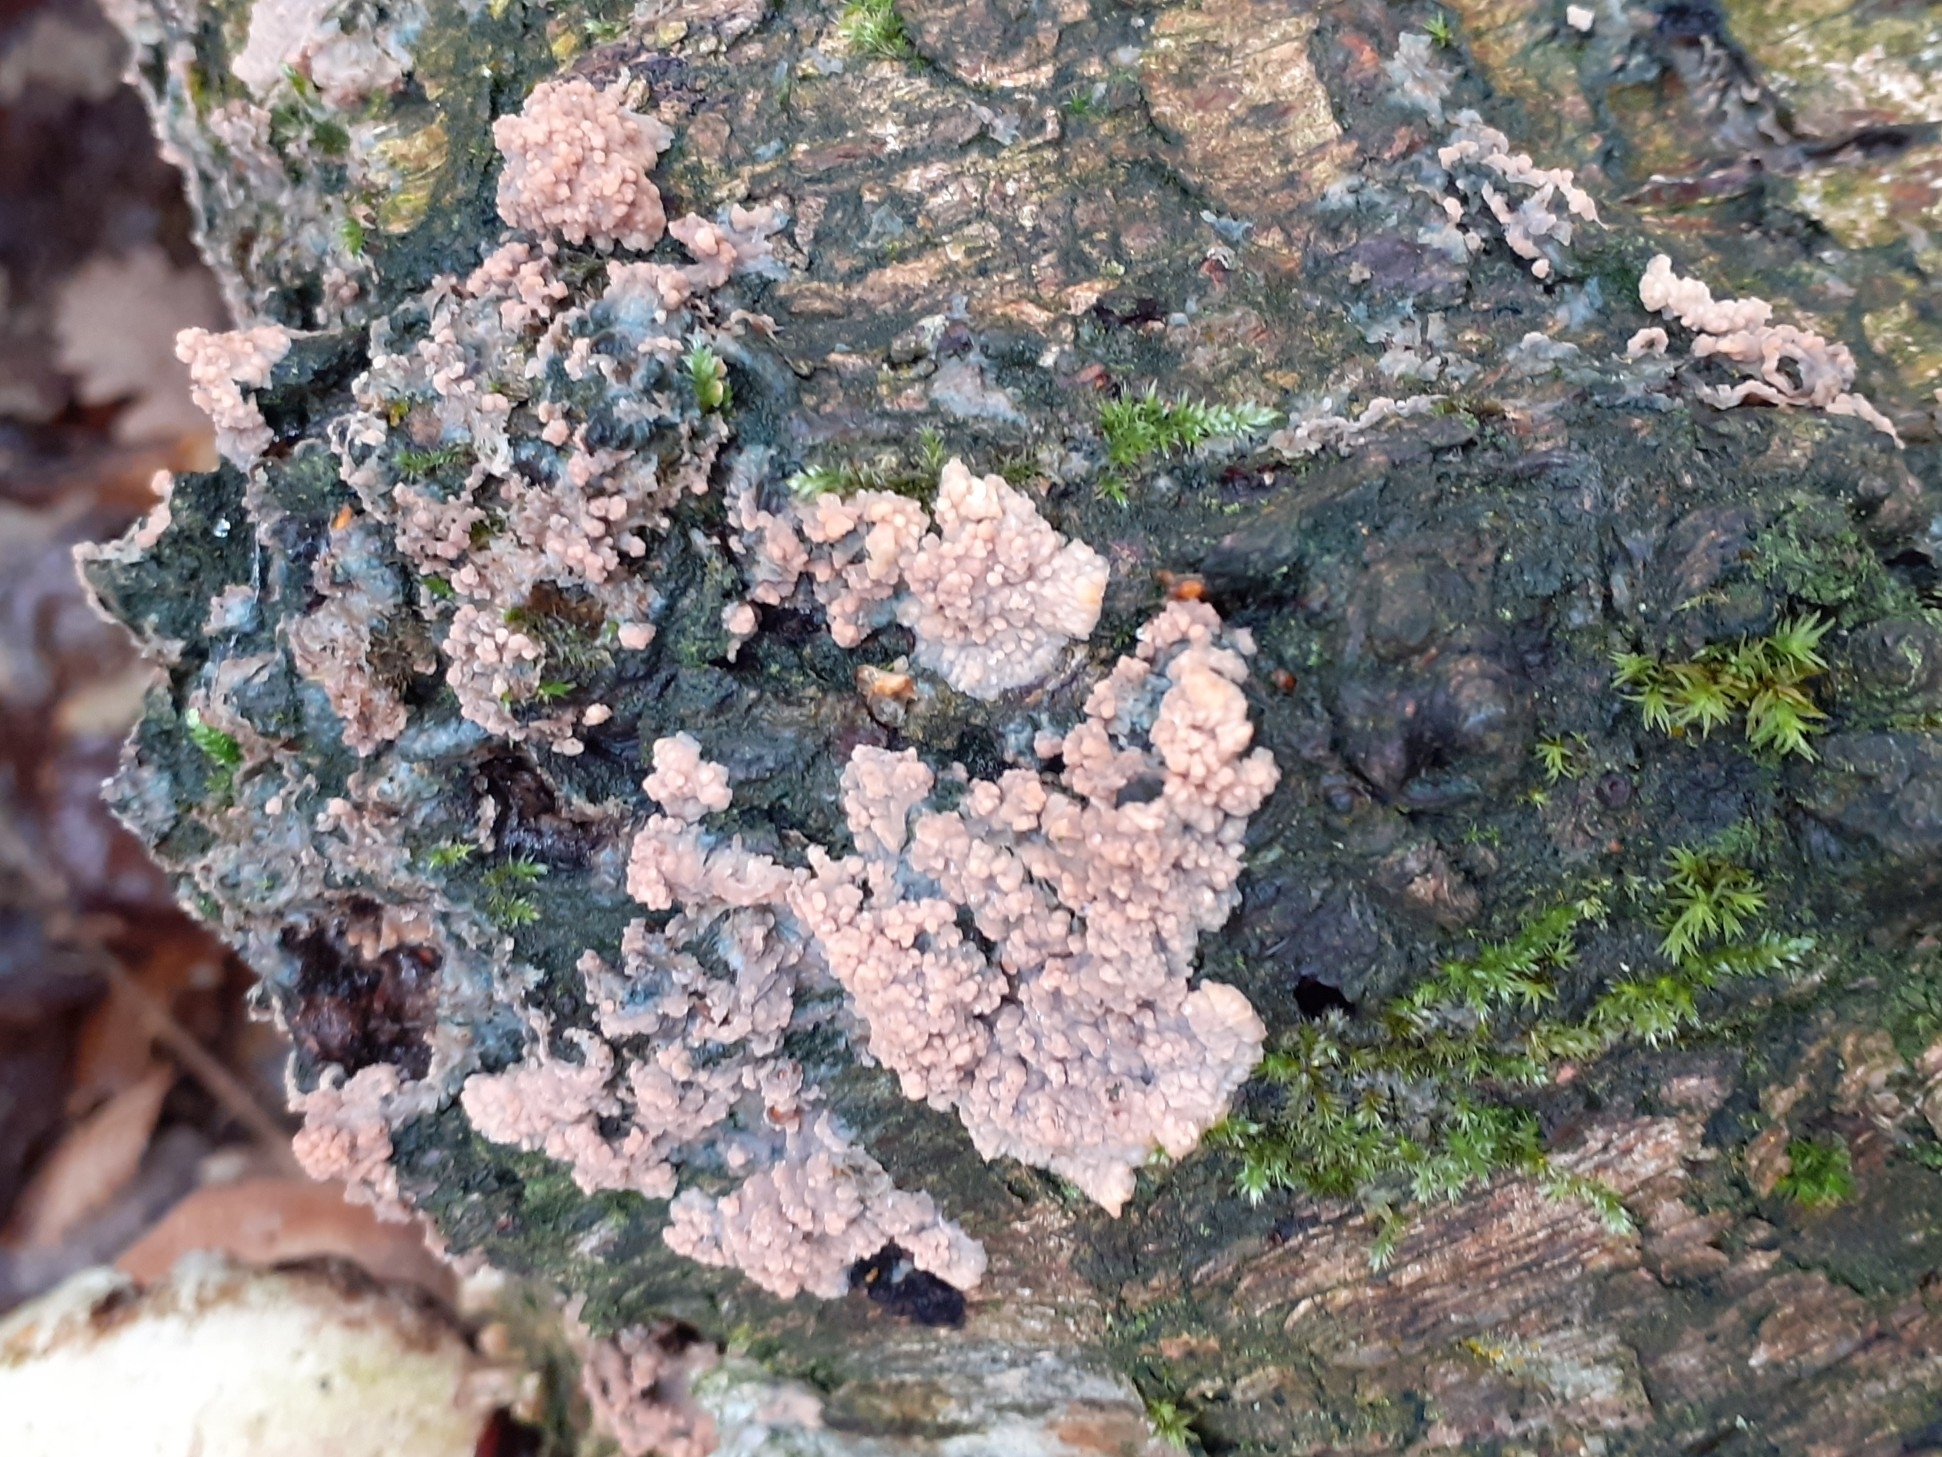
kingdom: Fungi
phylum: Basidiomycota
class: Agaricomycetes
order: Polyporales
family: Meruliaceae
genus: Phlebia
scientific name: Phlebia radiata
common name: Wrinkled crust
